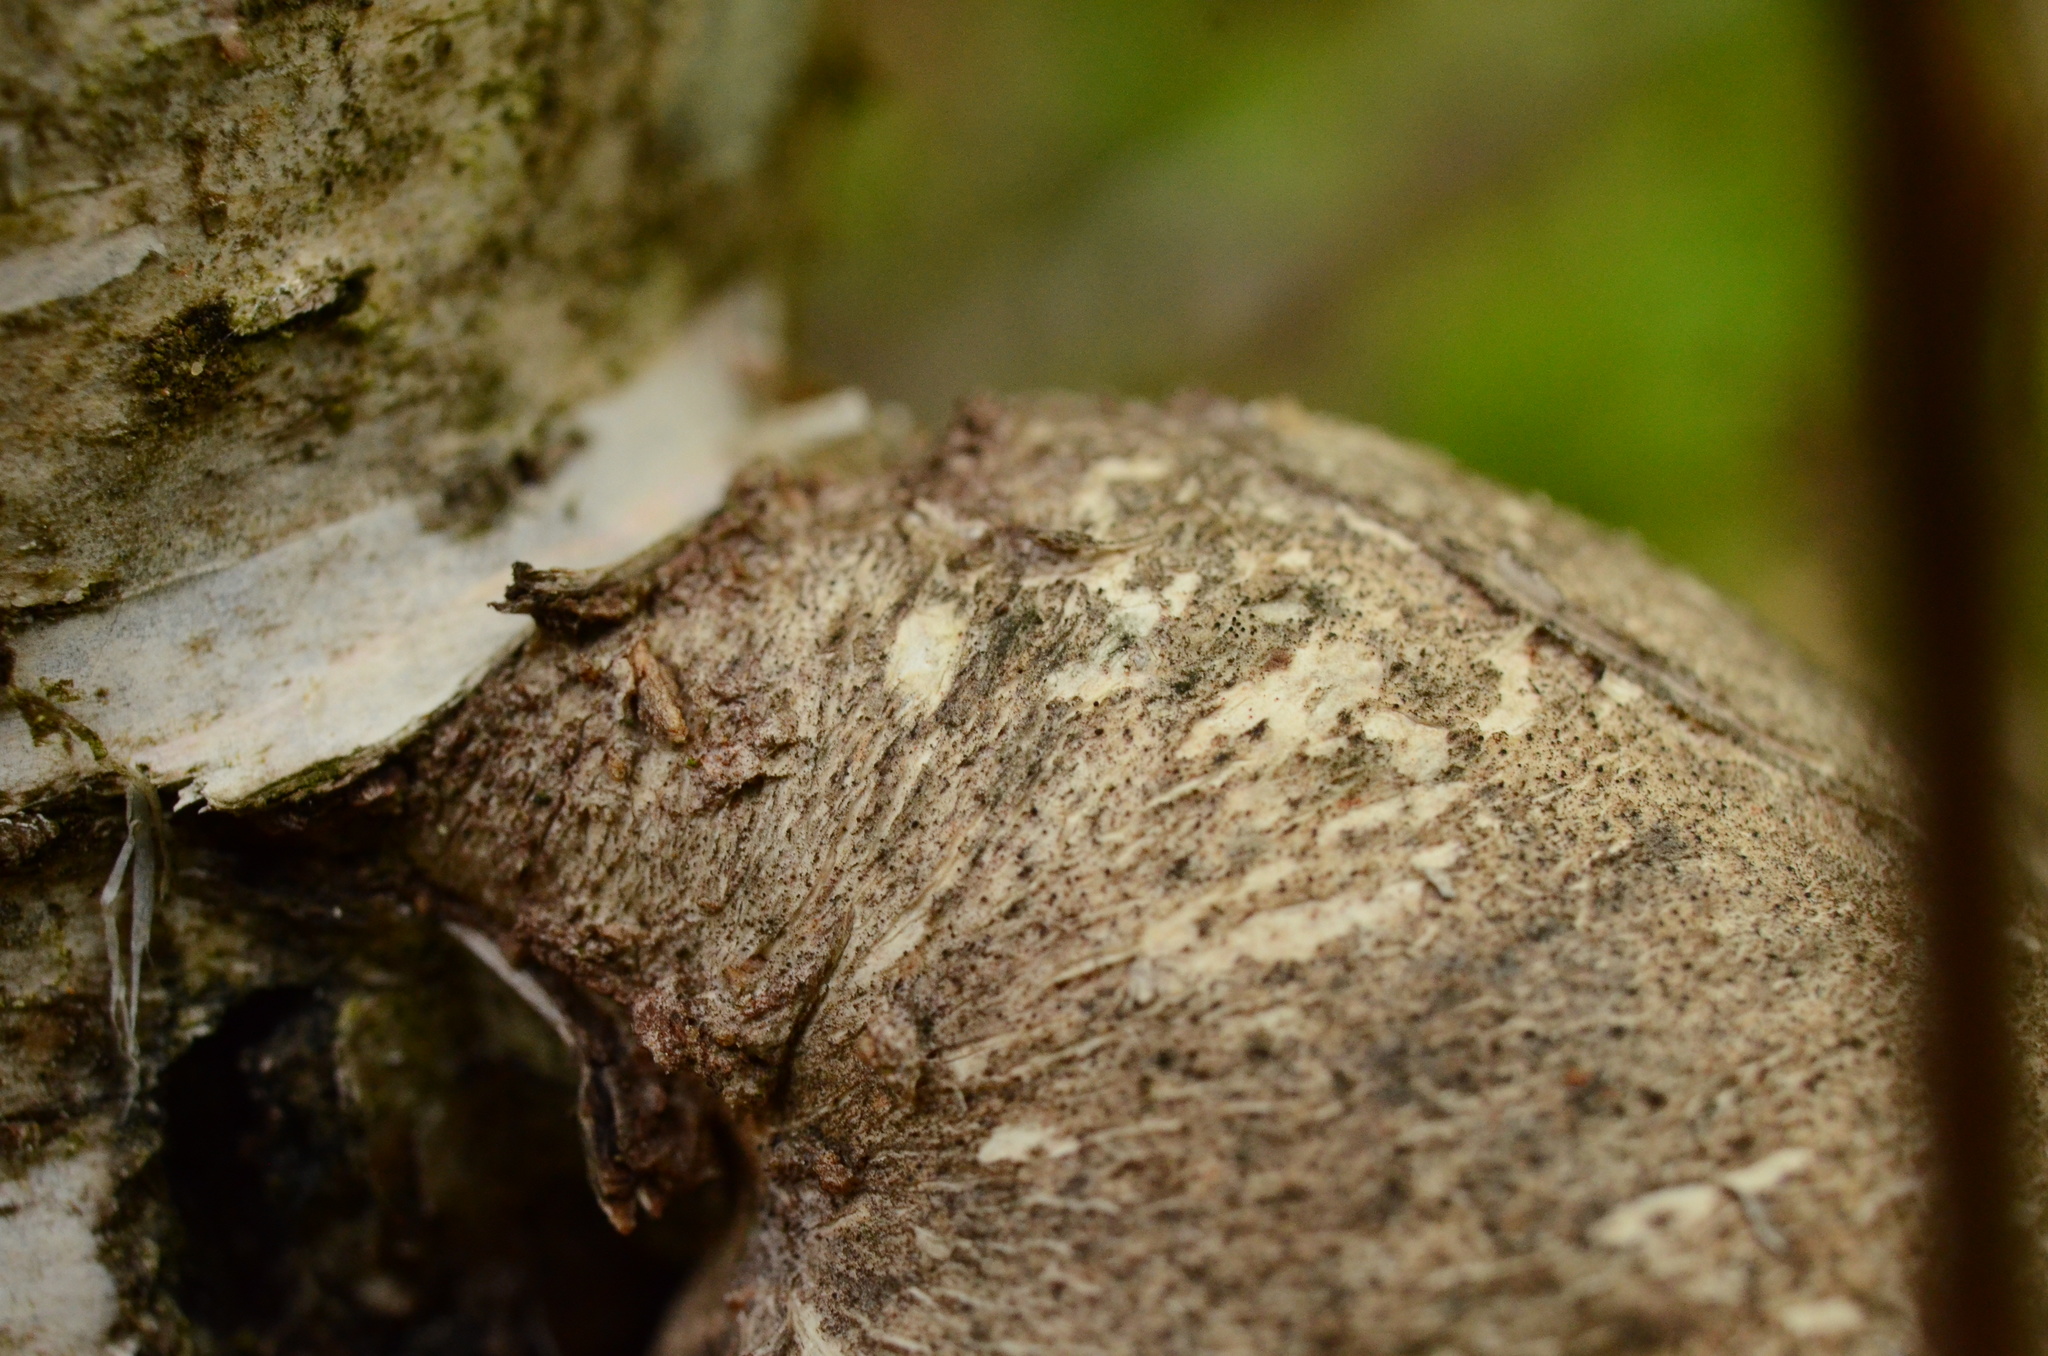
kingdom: Fungi
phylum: Basidiomycota
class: Agaricomycetes
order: Polyporales
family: Fomitopsidaceae
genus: Fomitopsis
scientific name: Fomitopsis betulina
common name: Birch polypore
